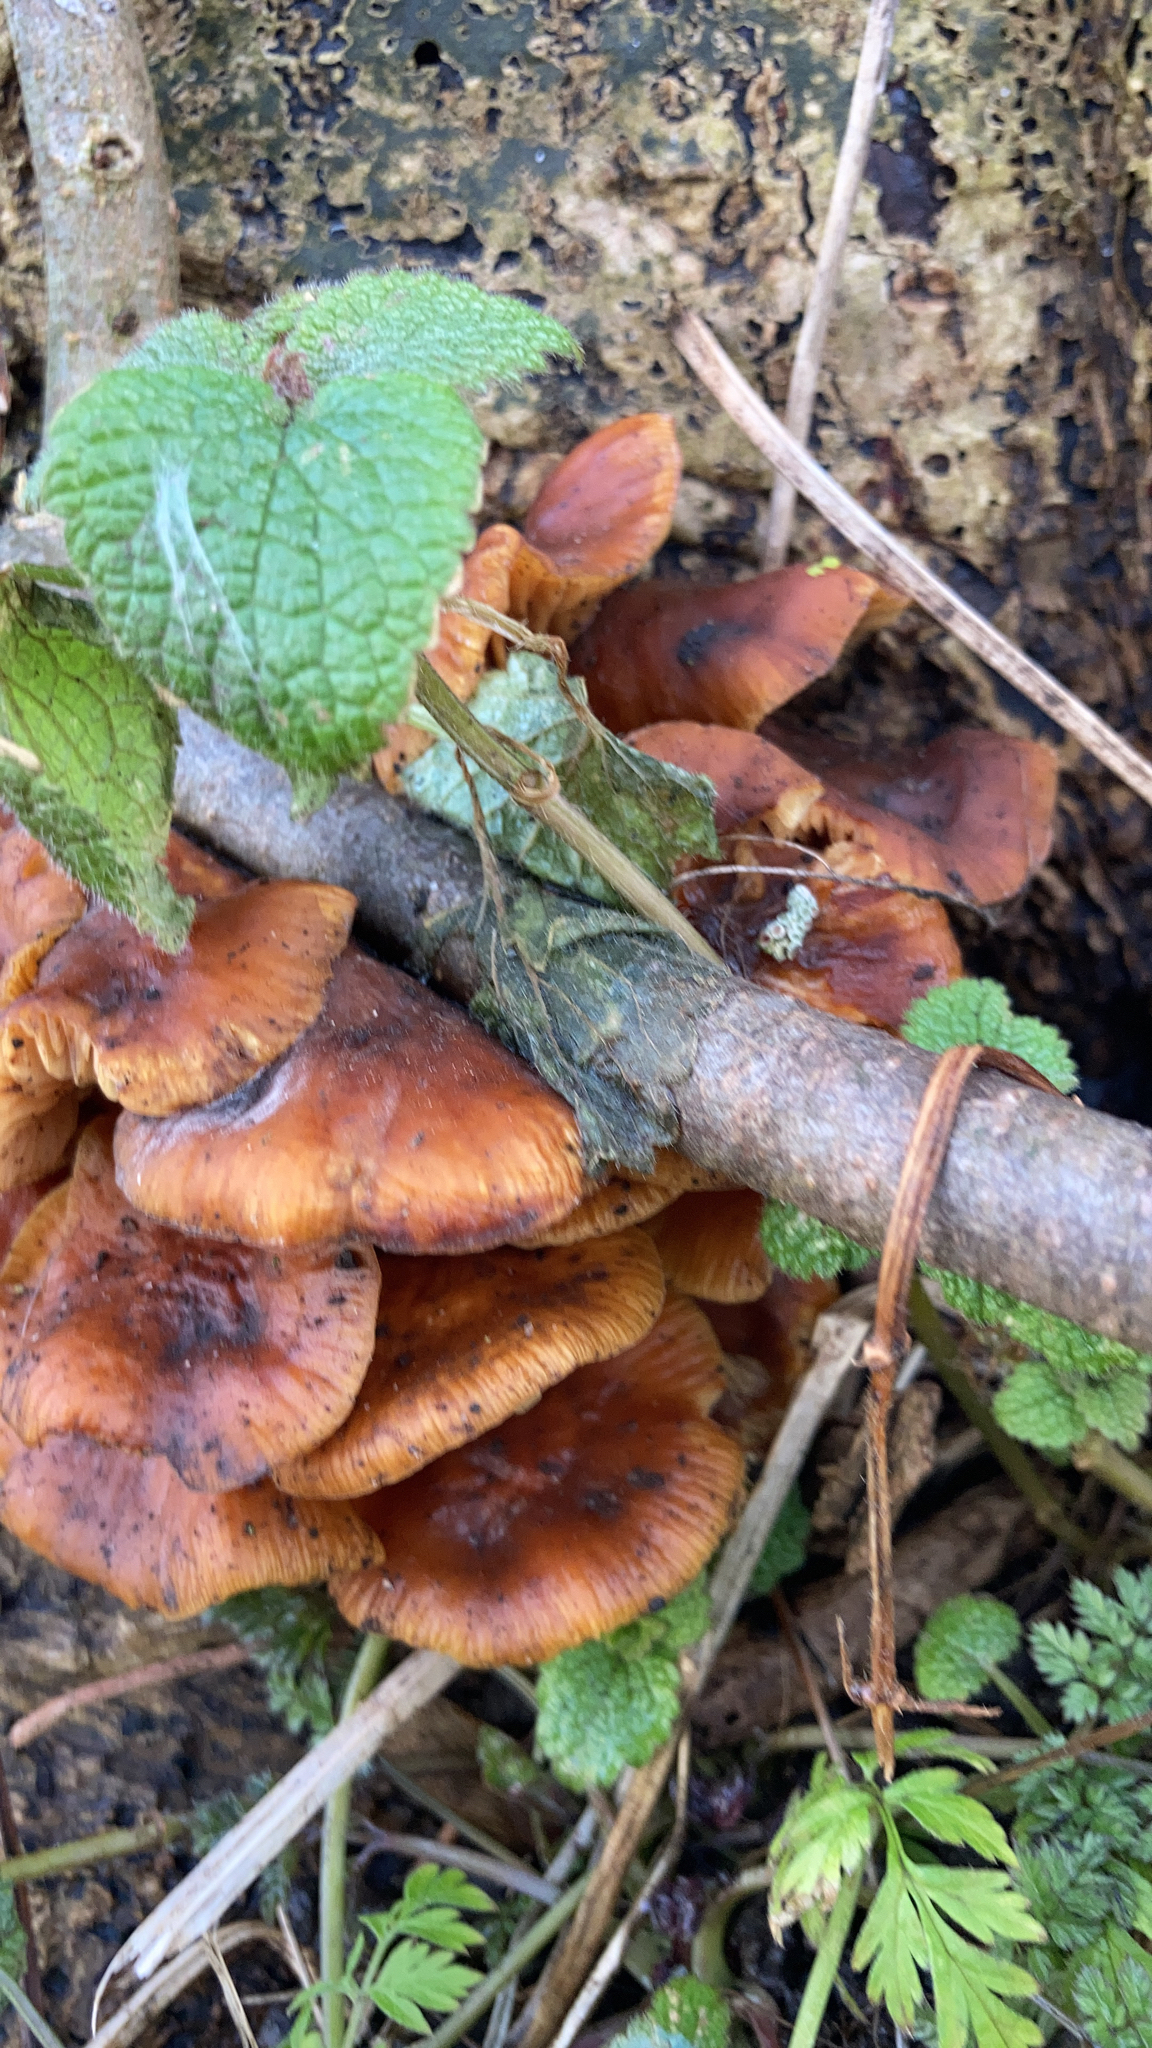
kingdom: Fungi
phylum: Basidiomycota
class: Agaricomycetes
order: Agaricales
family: Physalacriaceae
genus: Flammulina
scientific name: Flammulina
